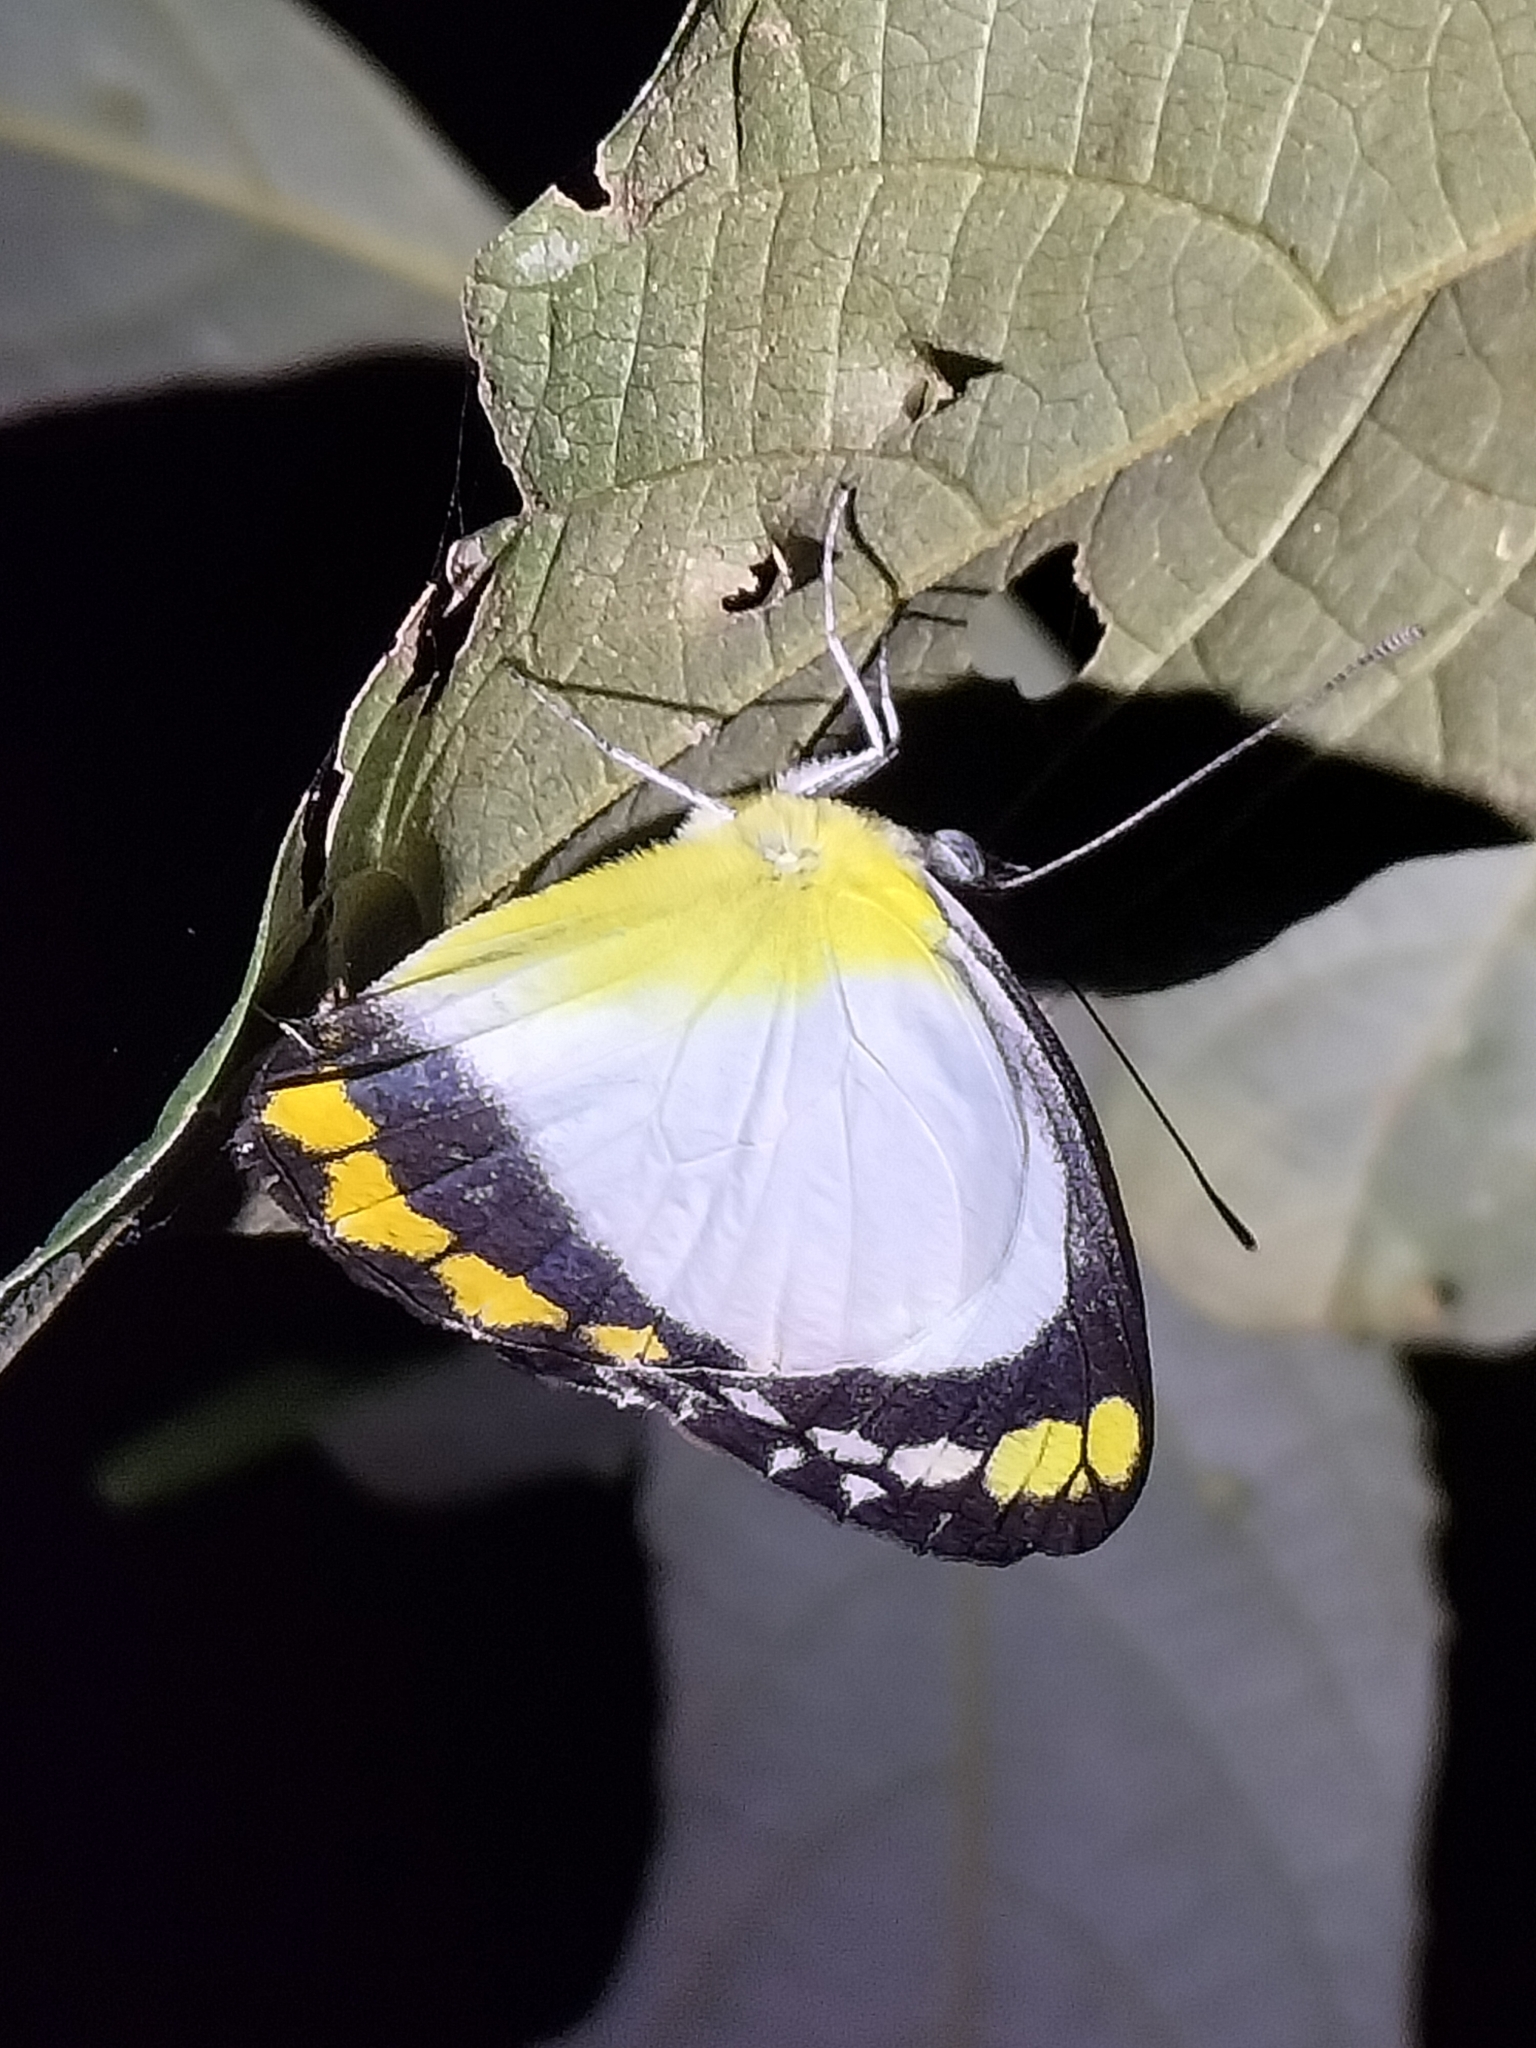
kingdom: Animalia
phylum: Arthropoda
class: Insecta
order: Lepidoptera
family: Pieridae
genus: Delias
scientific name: Delias ennia
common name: Yellow-banded jezebel
